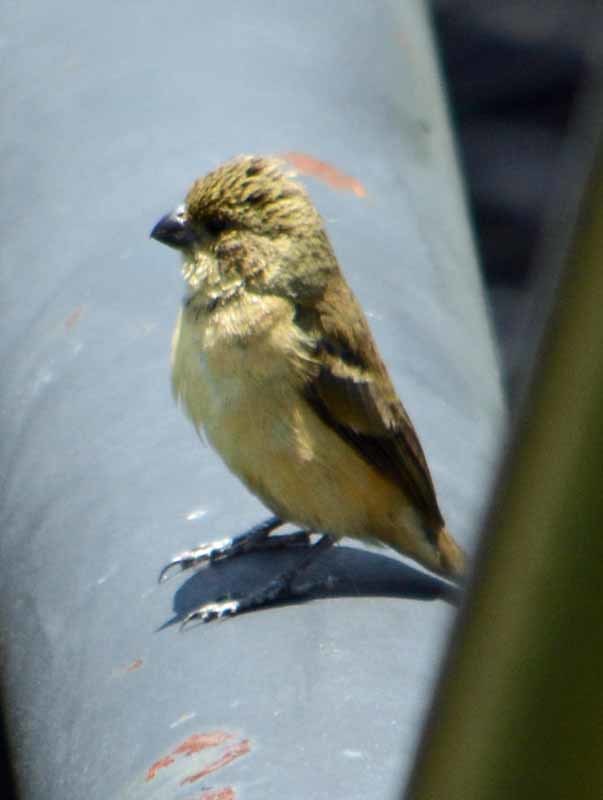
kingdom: Animalia
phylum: Chordata
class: Aves
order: Passeriformes
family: Thraupidae
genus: Sporophila
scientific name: Sporophila torqueola
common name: White-collared seedeater
